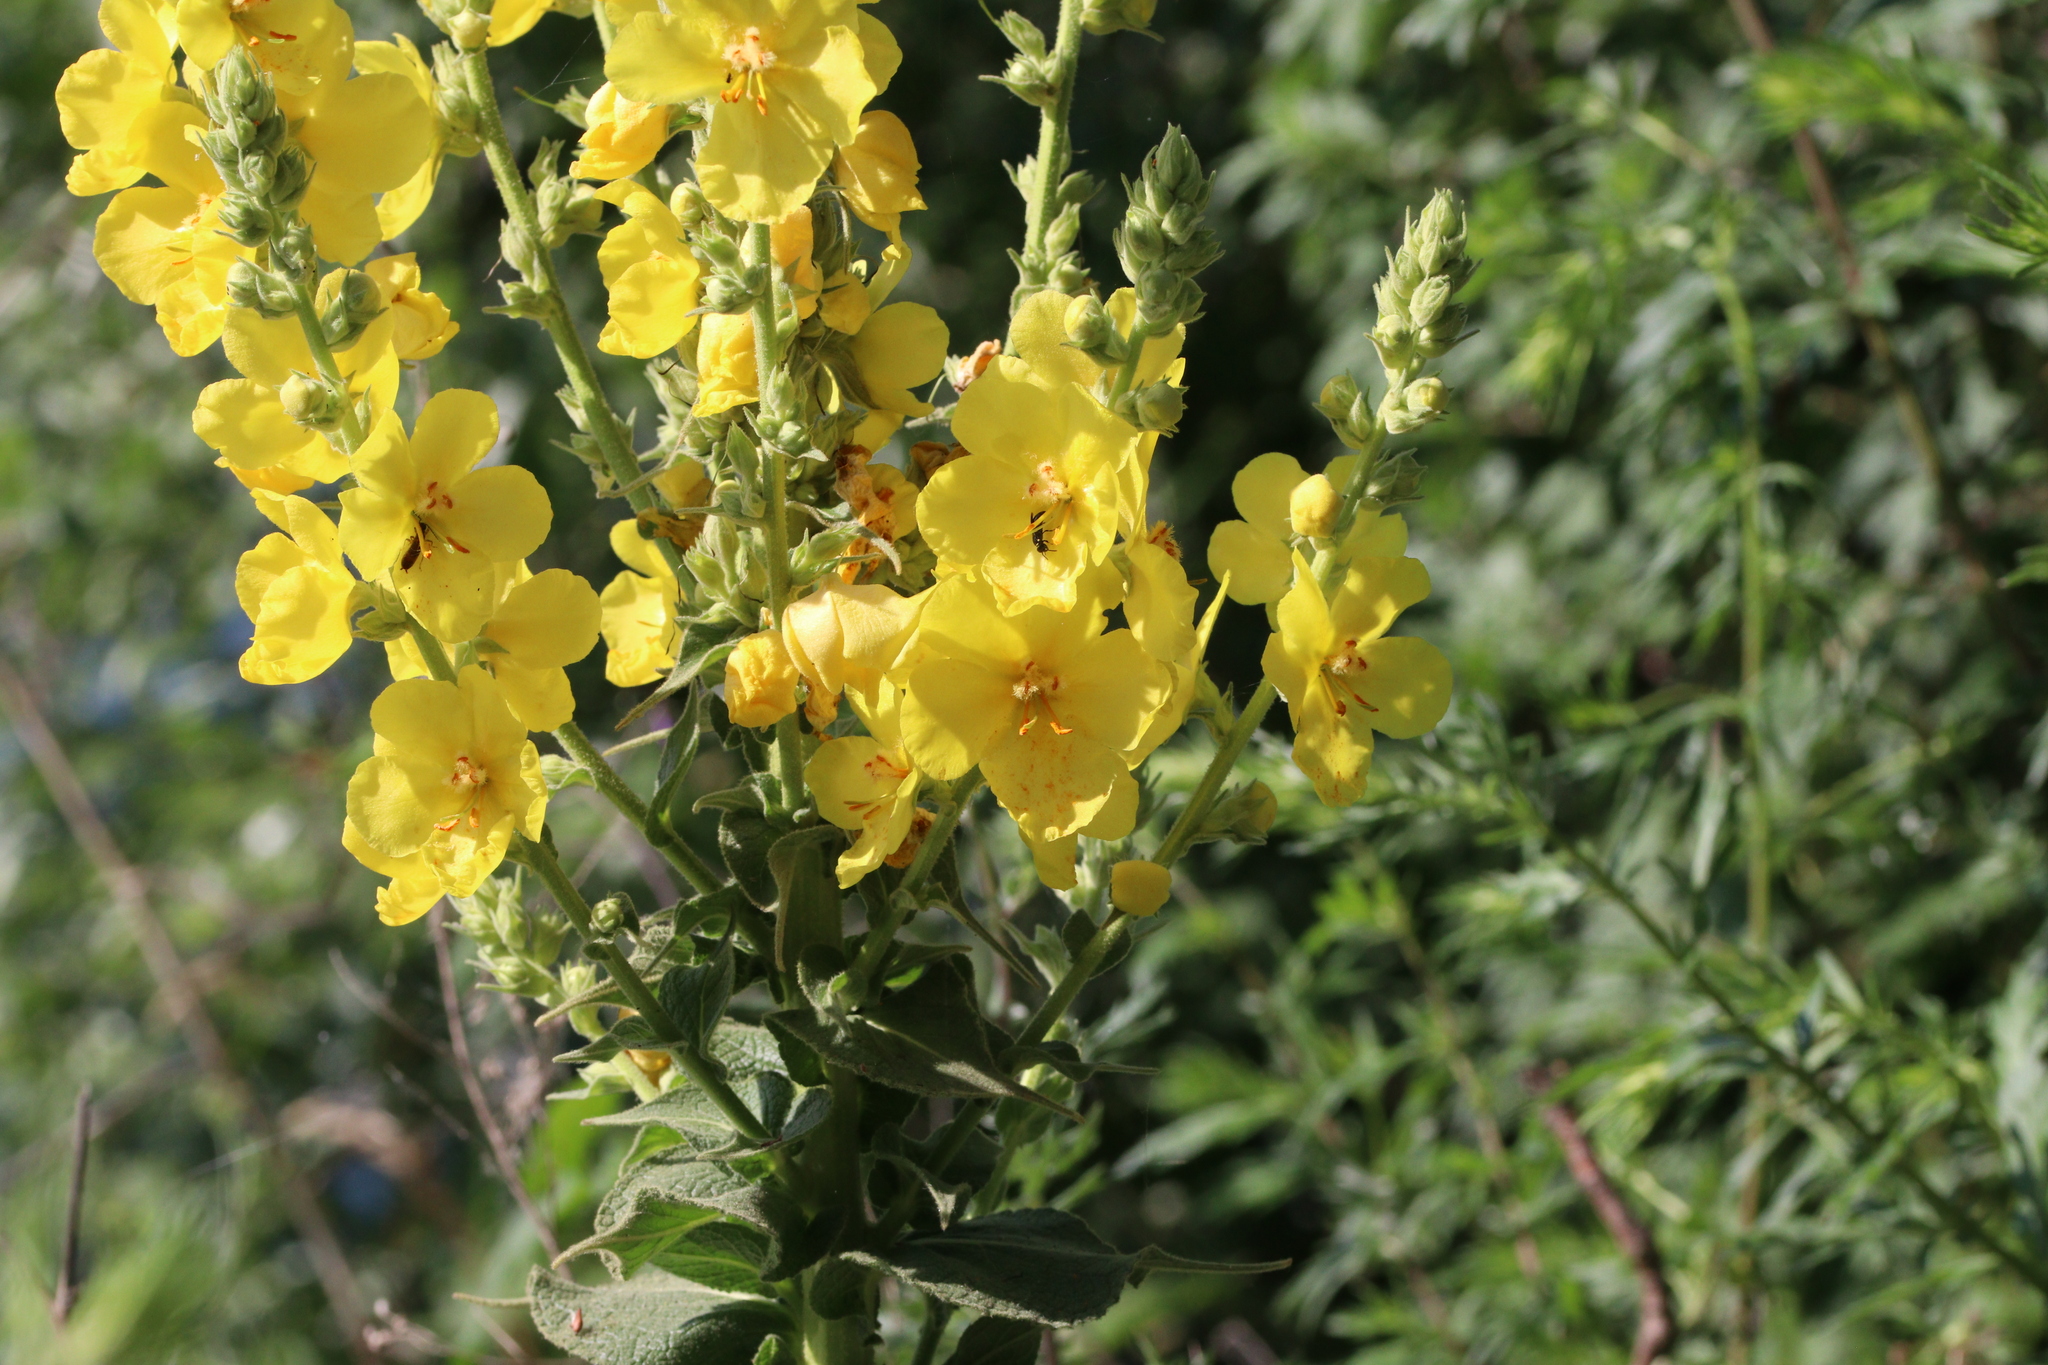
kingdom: Plantae
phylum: Tracheophyta
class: Magnoliopsida
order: Lamiales
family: Scrophulariaceae
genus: Verbascum
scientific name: Verbascum phlomoides
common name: Orange mullein
